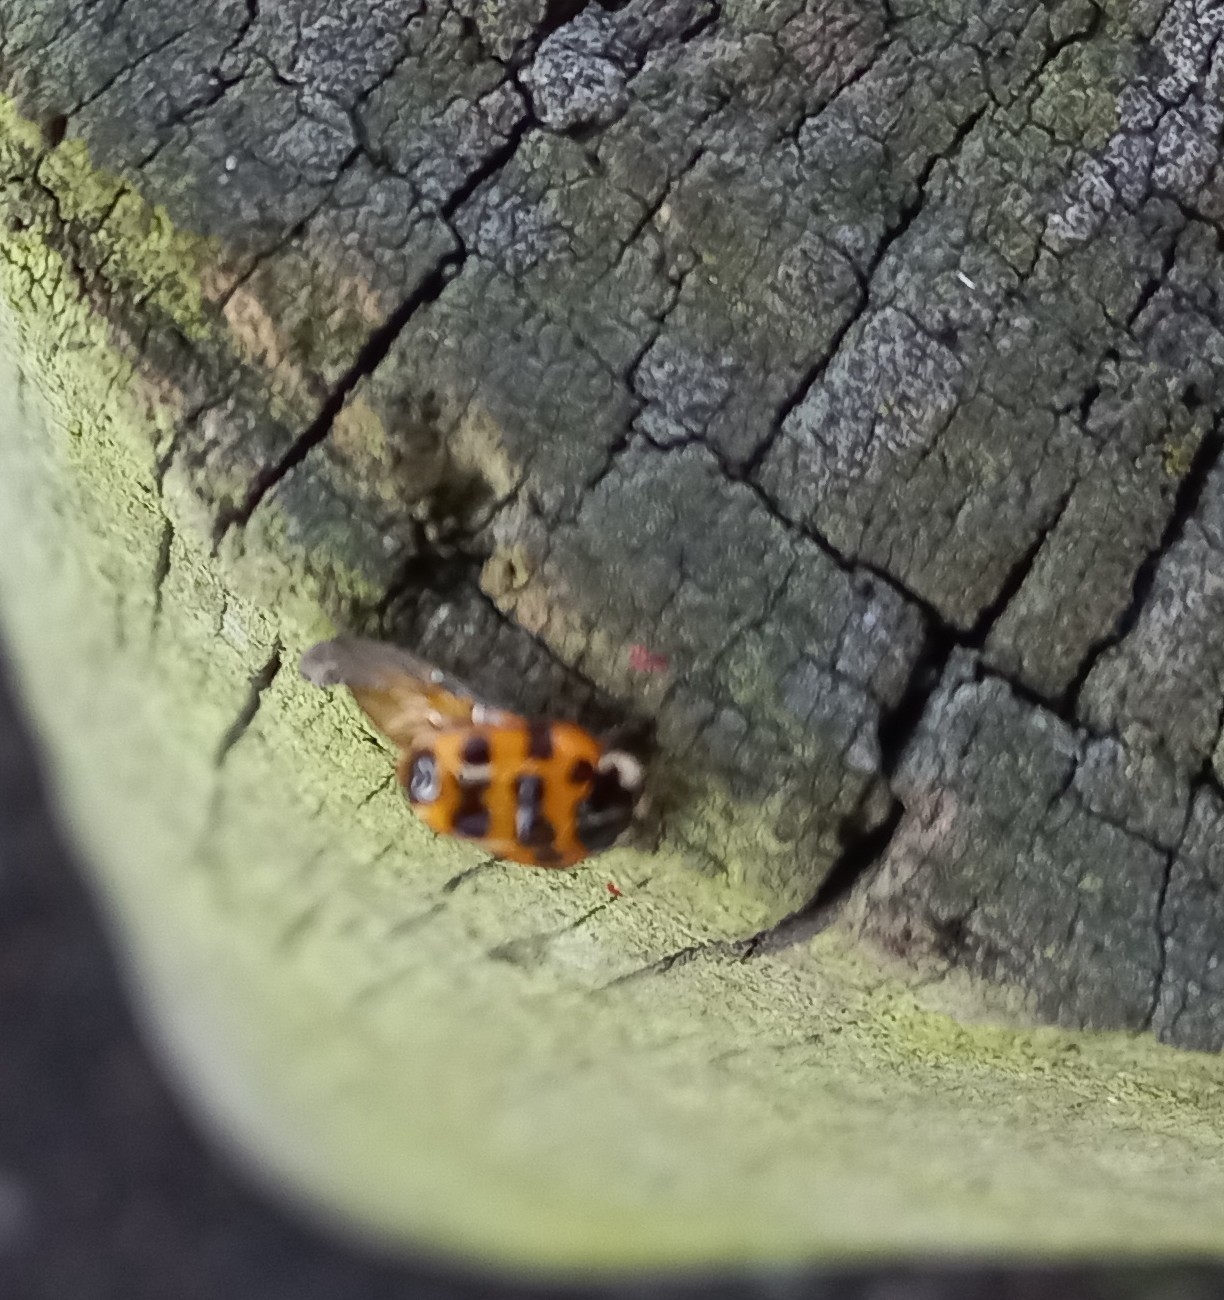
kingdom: Animalia
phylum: Arthropoda
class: Insecta
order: Coleoptera
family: Coccinellidae
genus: Harmonia
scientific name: Harmonia axyridis
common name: Harlequin ladybird
